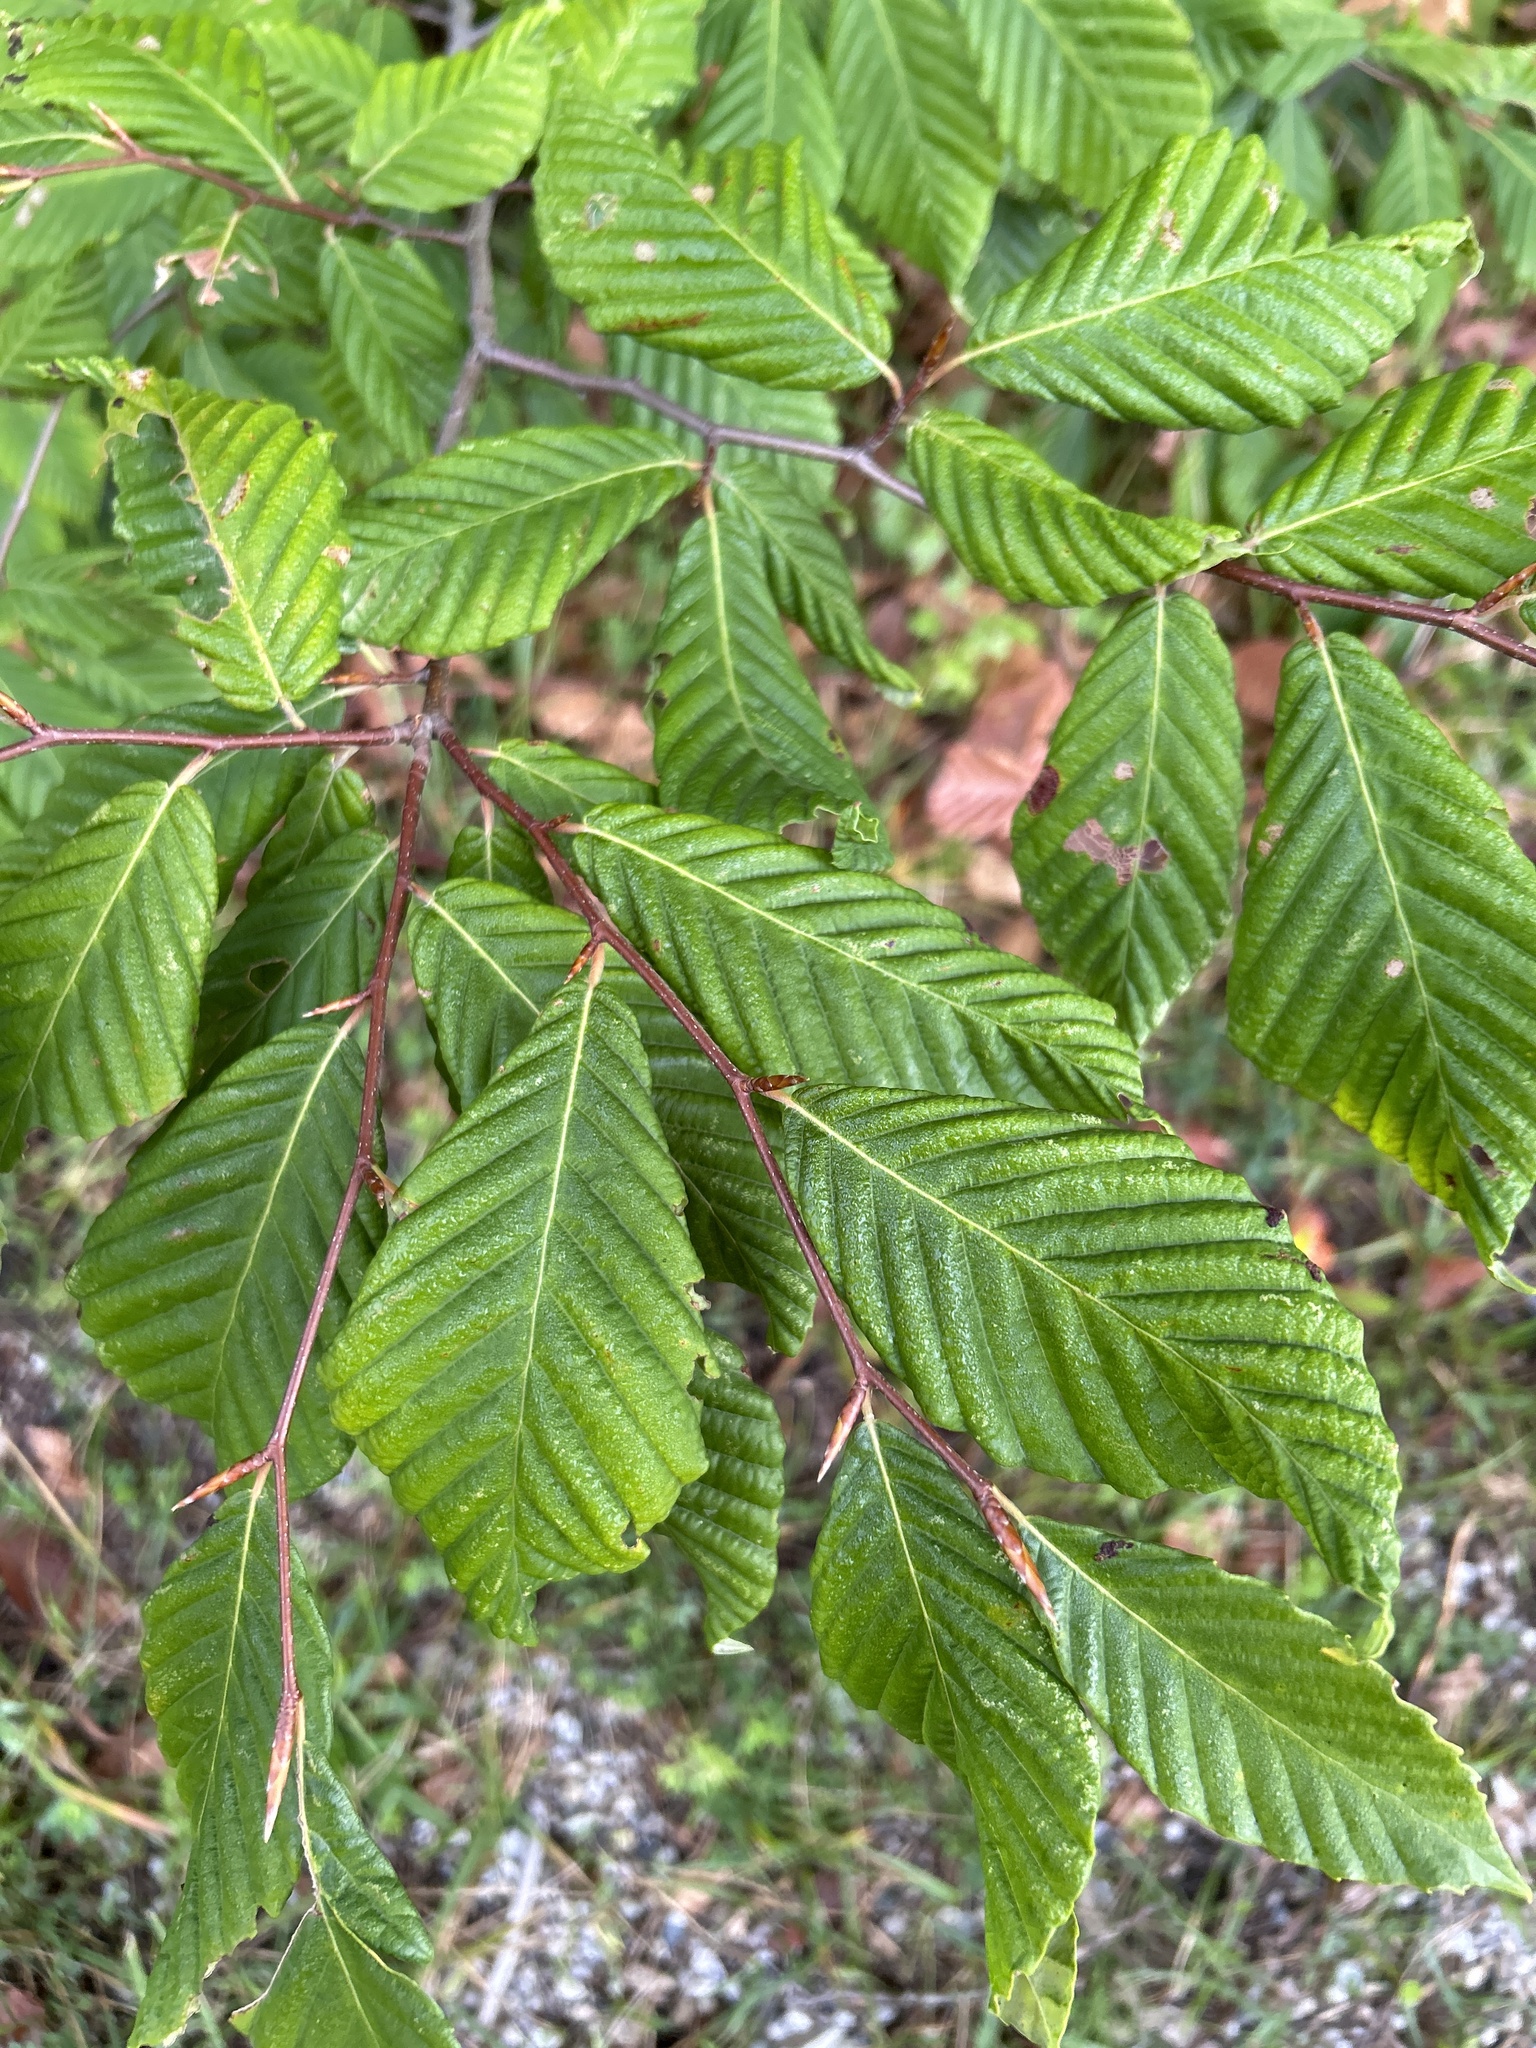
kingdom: Plantae
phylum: Tracheophyta
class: Magnoliopsida
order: Fagales
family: Fagaceae
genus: Fagus
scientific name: Fagus grandifolia
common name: American beech
